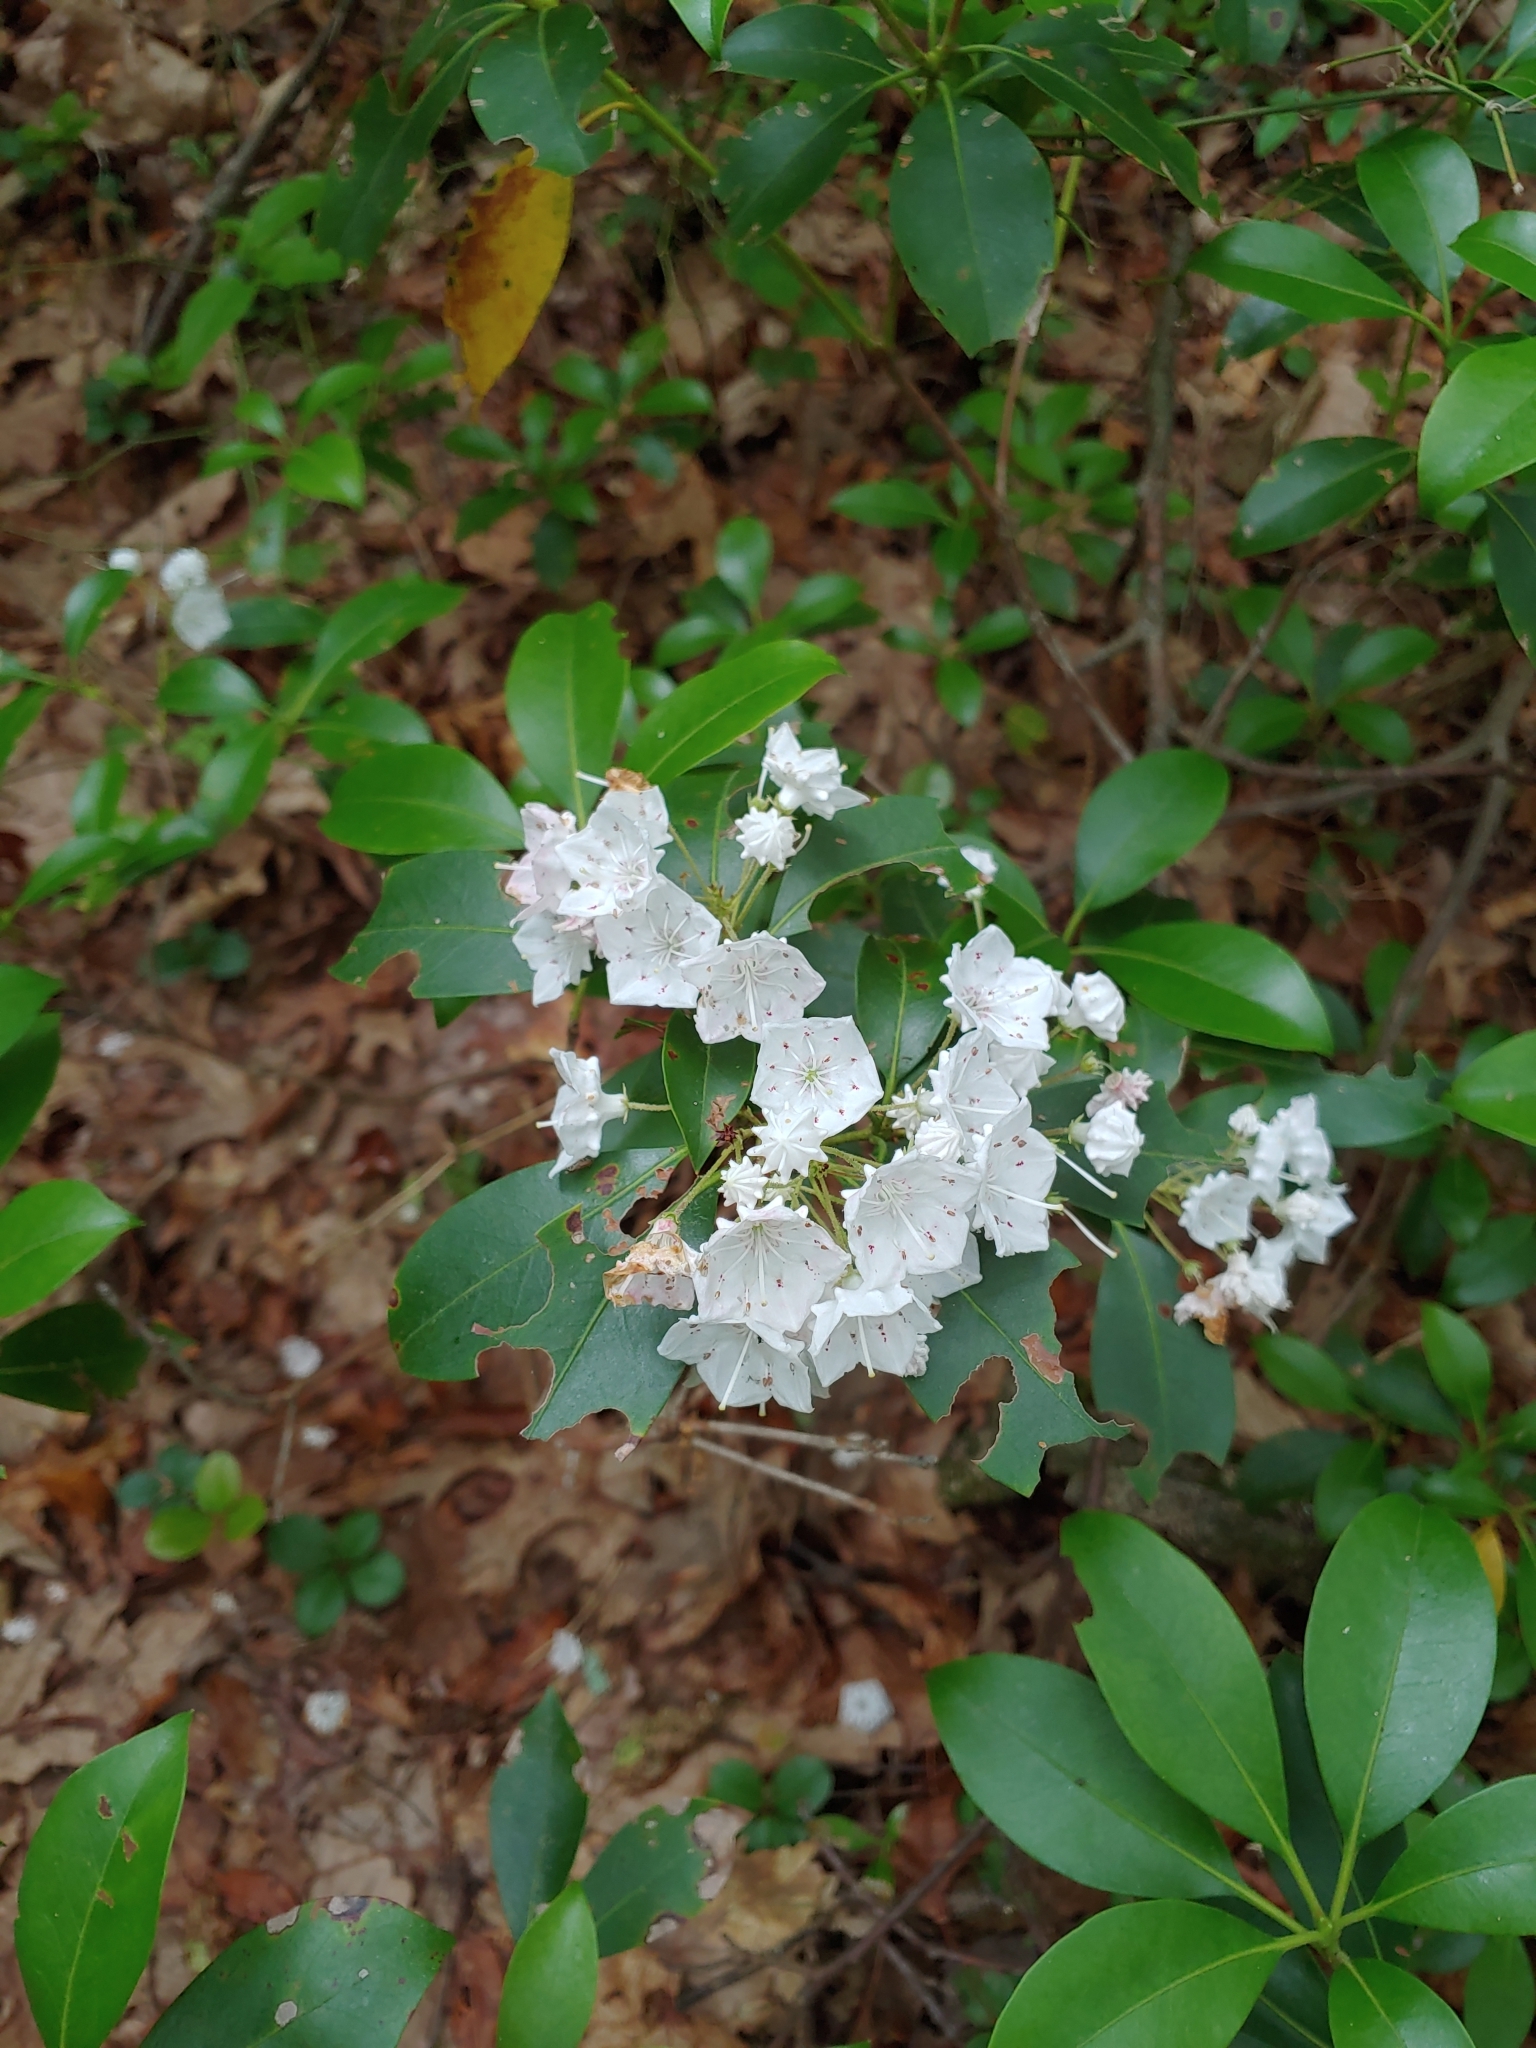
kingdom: Plantae
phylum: Tracheophyta
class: Magnoliopsida
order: Ericales
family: Ericaceae
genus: Kalmia
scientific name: Kalmia latifolia
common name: Mountain-laurel
